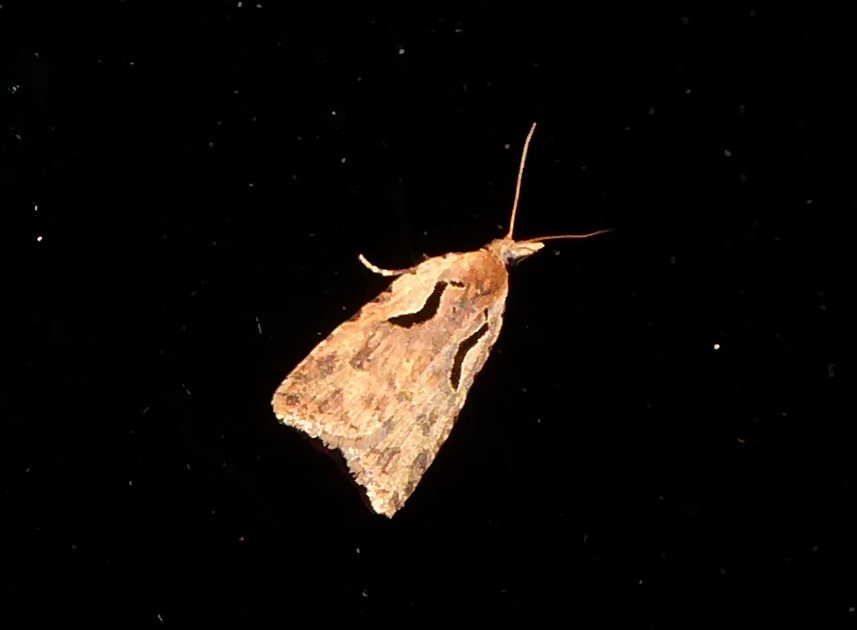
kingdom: Animalia
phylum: Arthropoda
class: Insecta
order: Lepidoptera
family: Tortricidae
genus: Cnephasia
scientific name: Cnephasia jactatana
